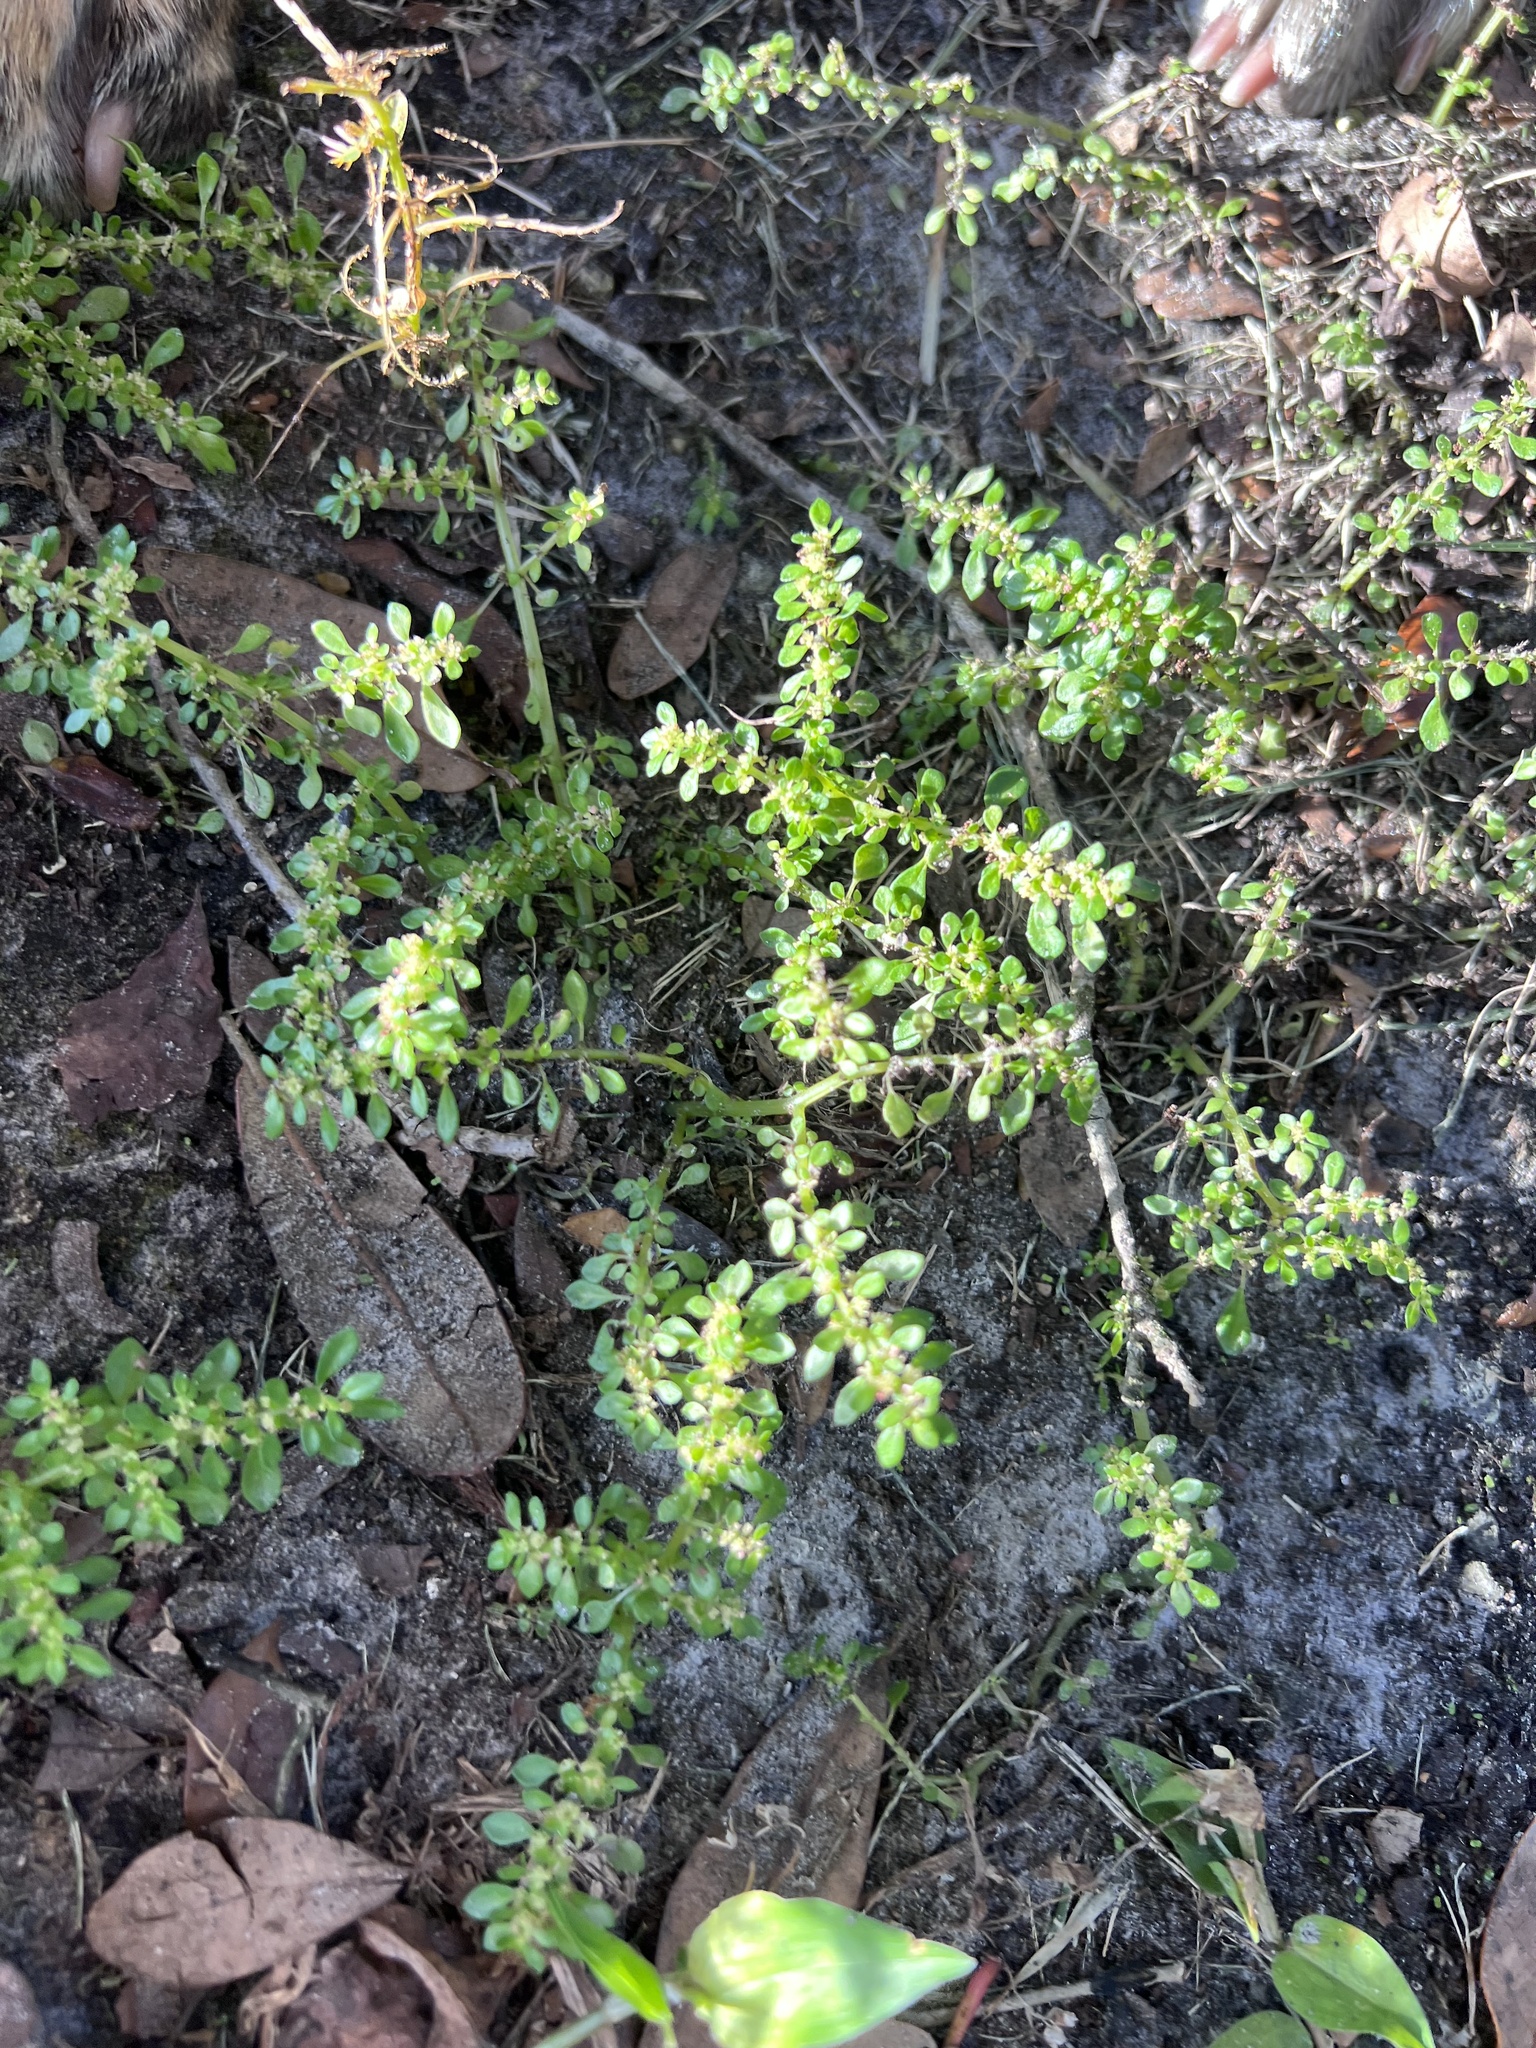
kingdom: Plantae
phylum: Tracheophyta
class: Magnoliopsida
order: Rosales
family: Urticaceae
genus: Pilea
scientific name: Pilea microphylla
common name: Artillery-plant
